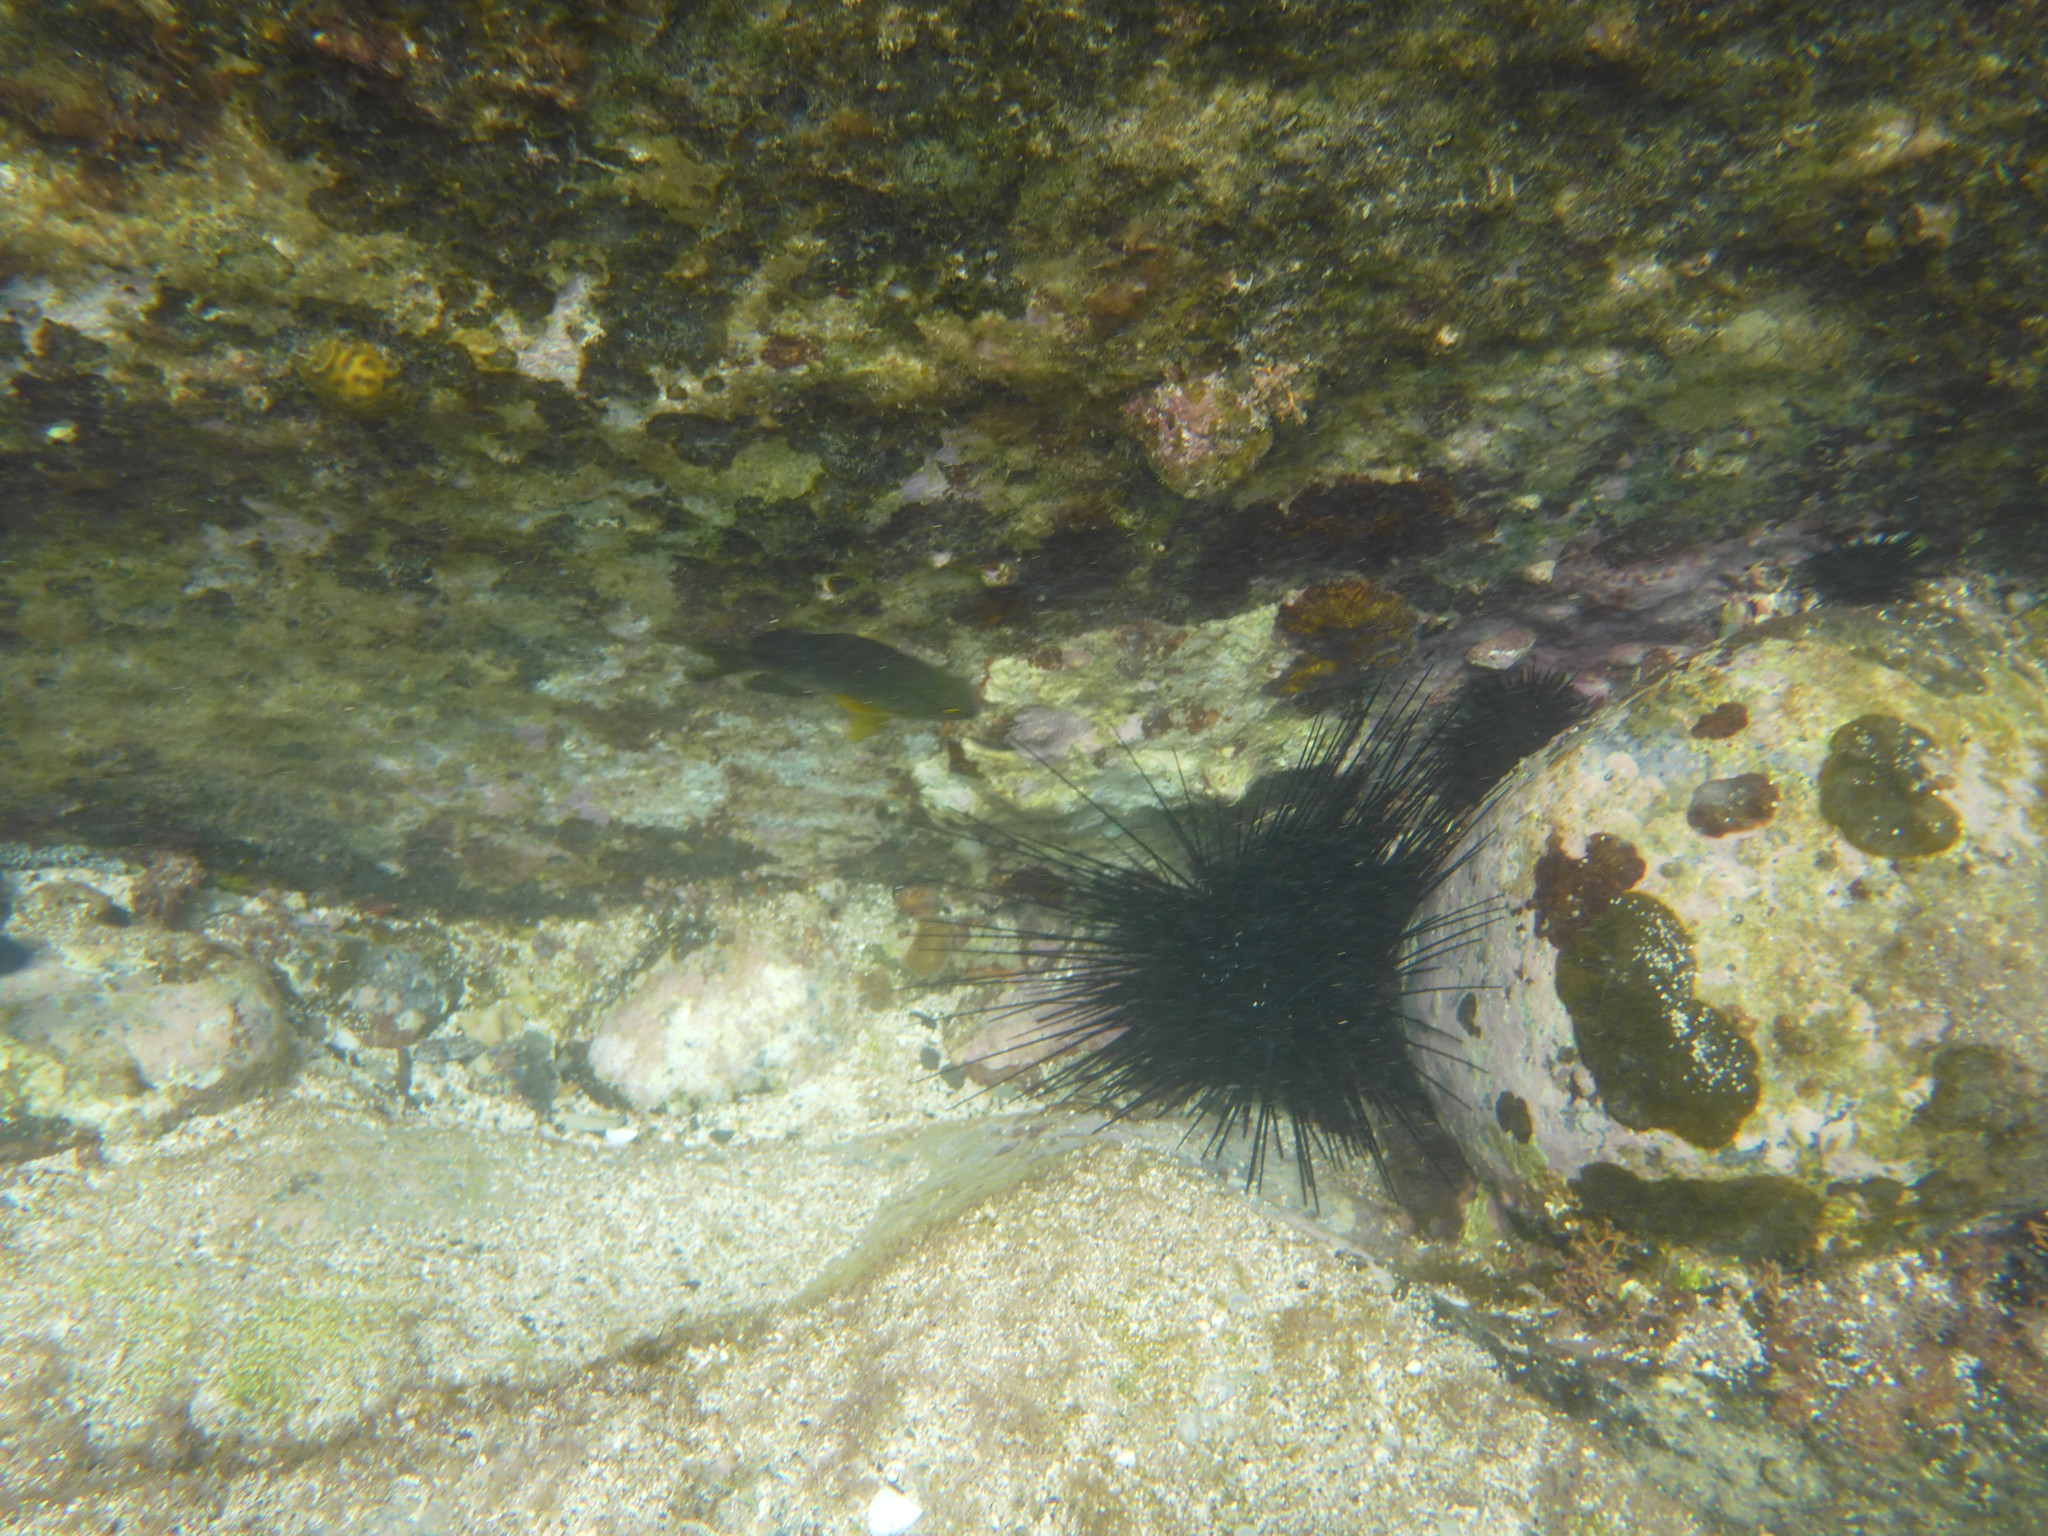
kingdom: Animalia
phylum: Echinodermata
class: Echinoidea
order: Diadematoida
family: Diadematidae
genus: Diadema
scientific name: Diadema antillarum
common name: Spiny urchin
